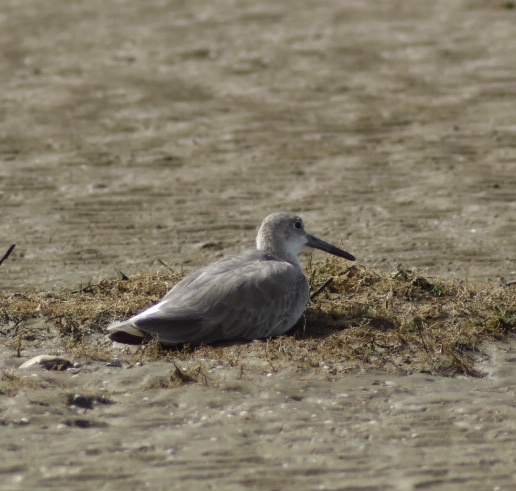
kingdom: Animalia
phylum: Chordata
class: Aves
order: Charadriiformes
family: Scolopacidae
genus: Tringa
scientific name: Tringa semipalmata
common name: Willet
